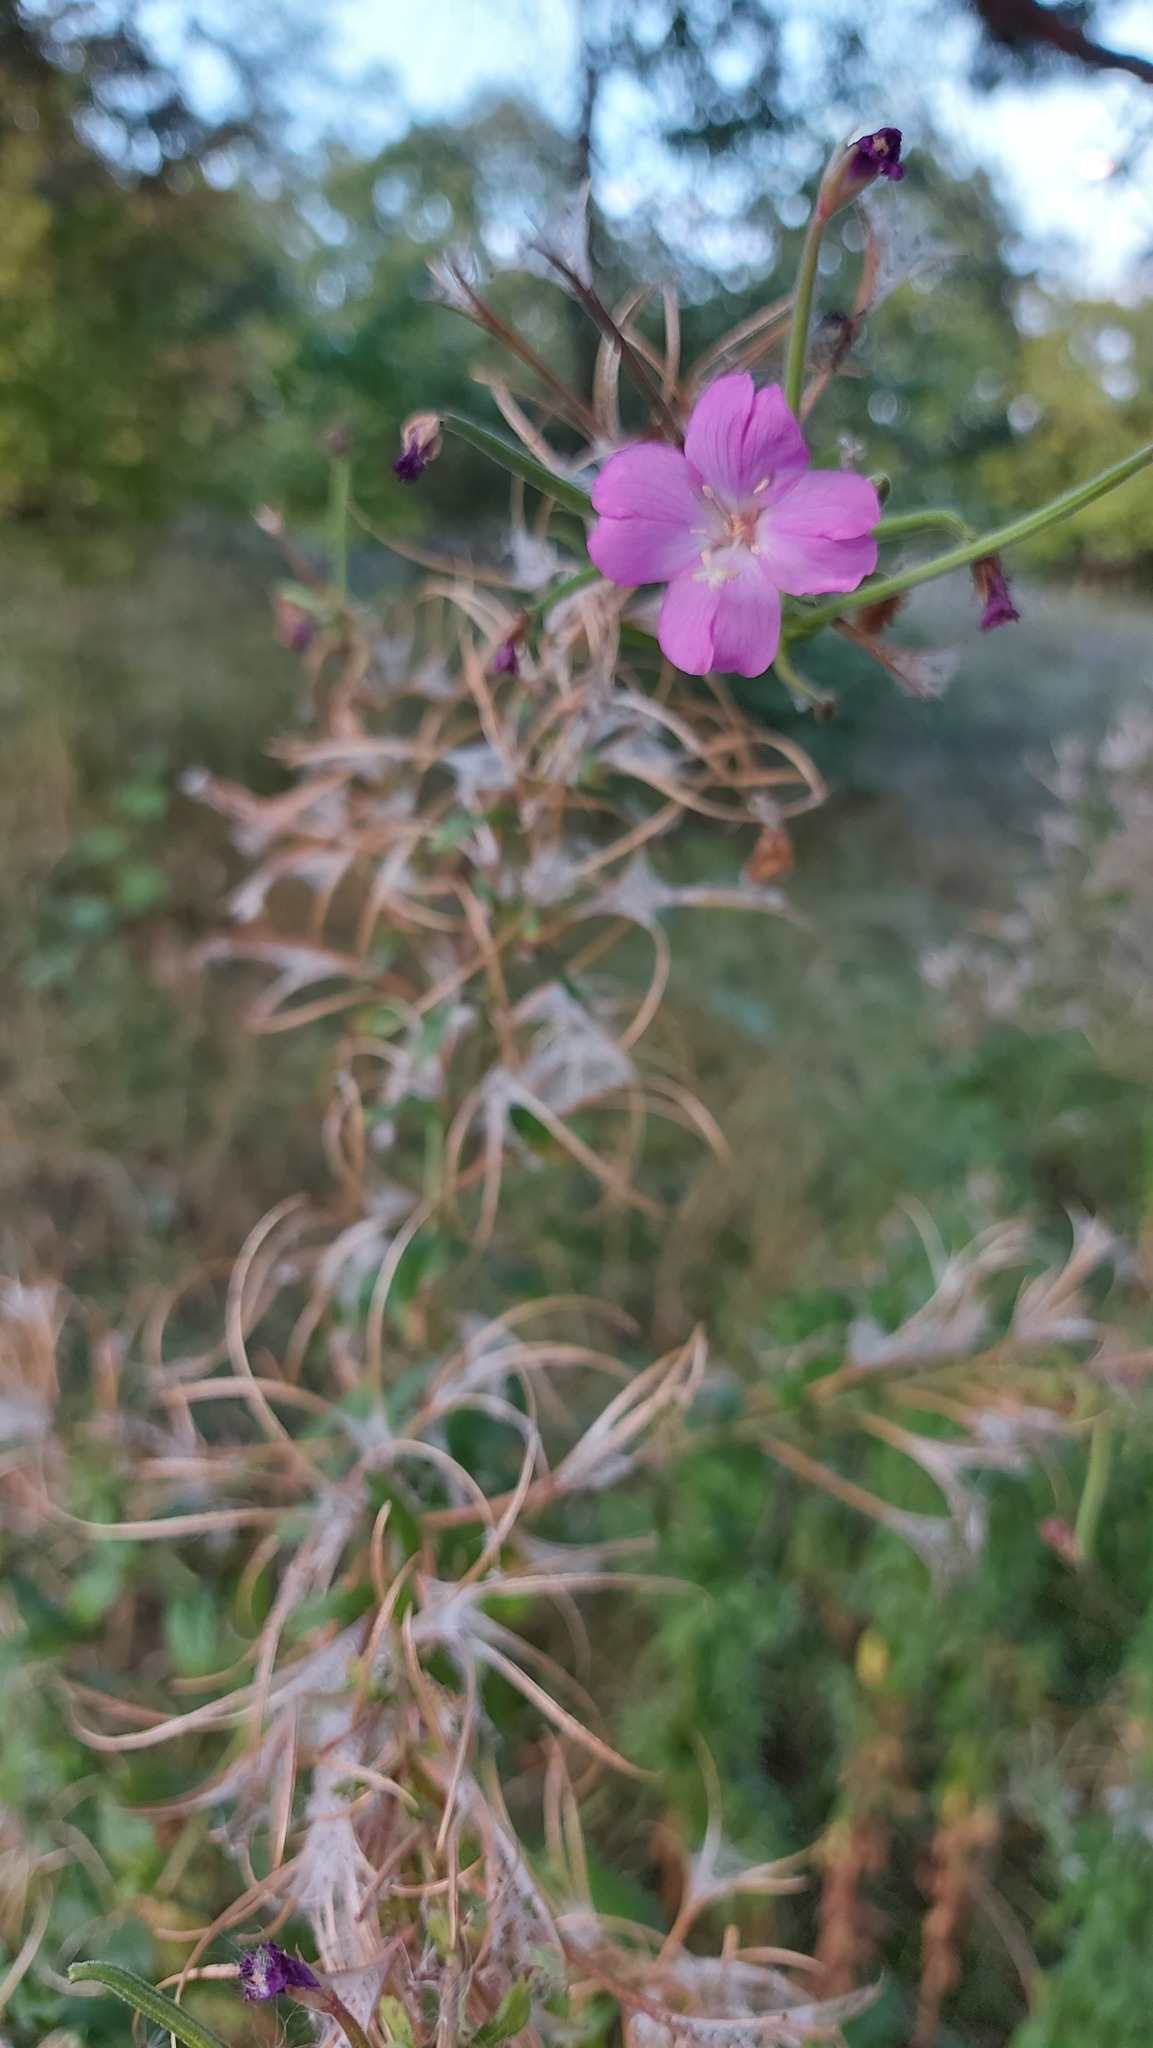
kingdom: Plantae
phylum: Tracheophyta
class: Magnoliopsida
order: Myrtales
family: Onagraceae
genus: Epilobium
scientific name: Epilobium hirsutum
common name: Great willowherb
